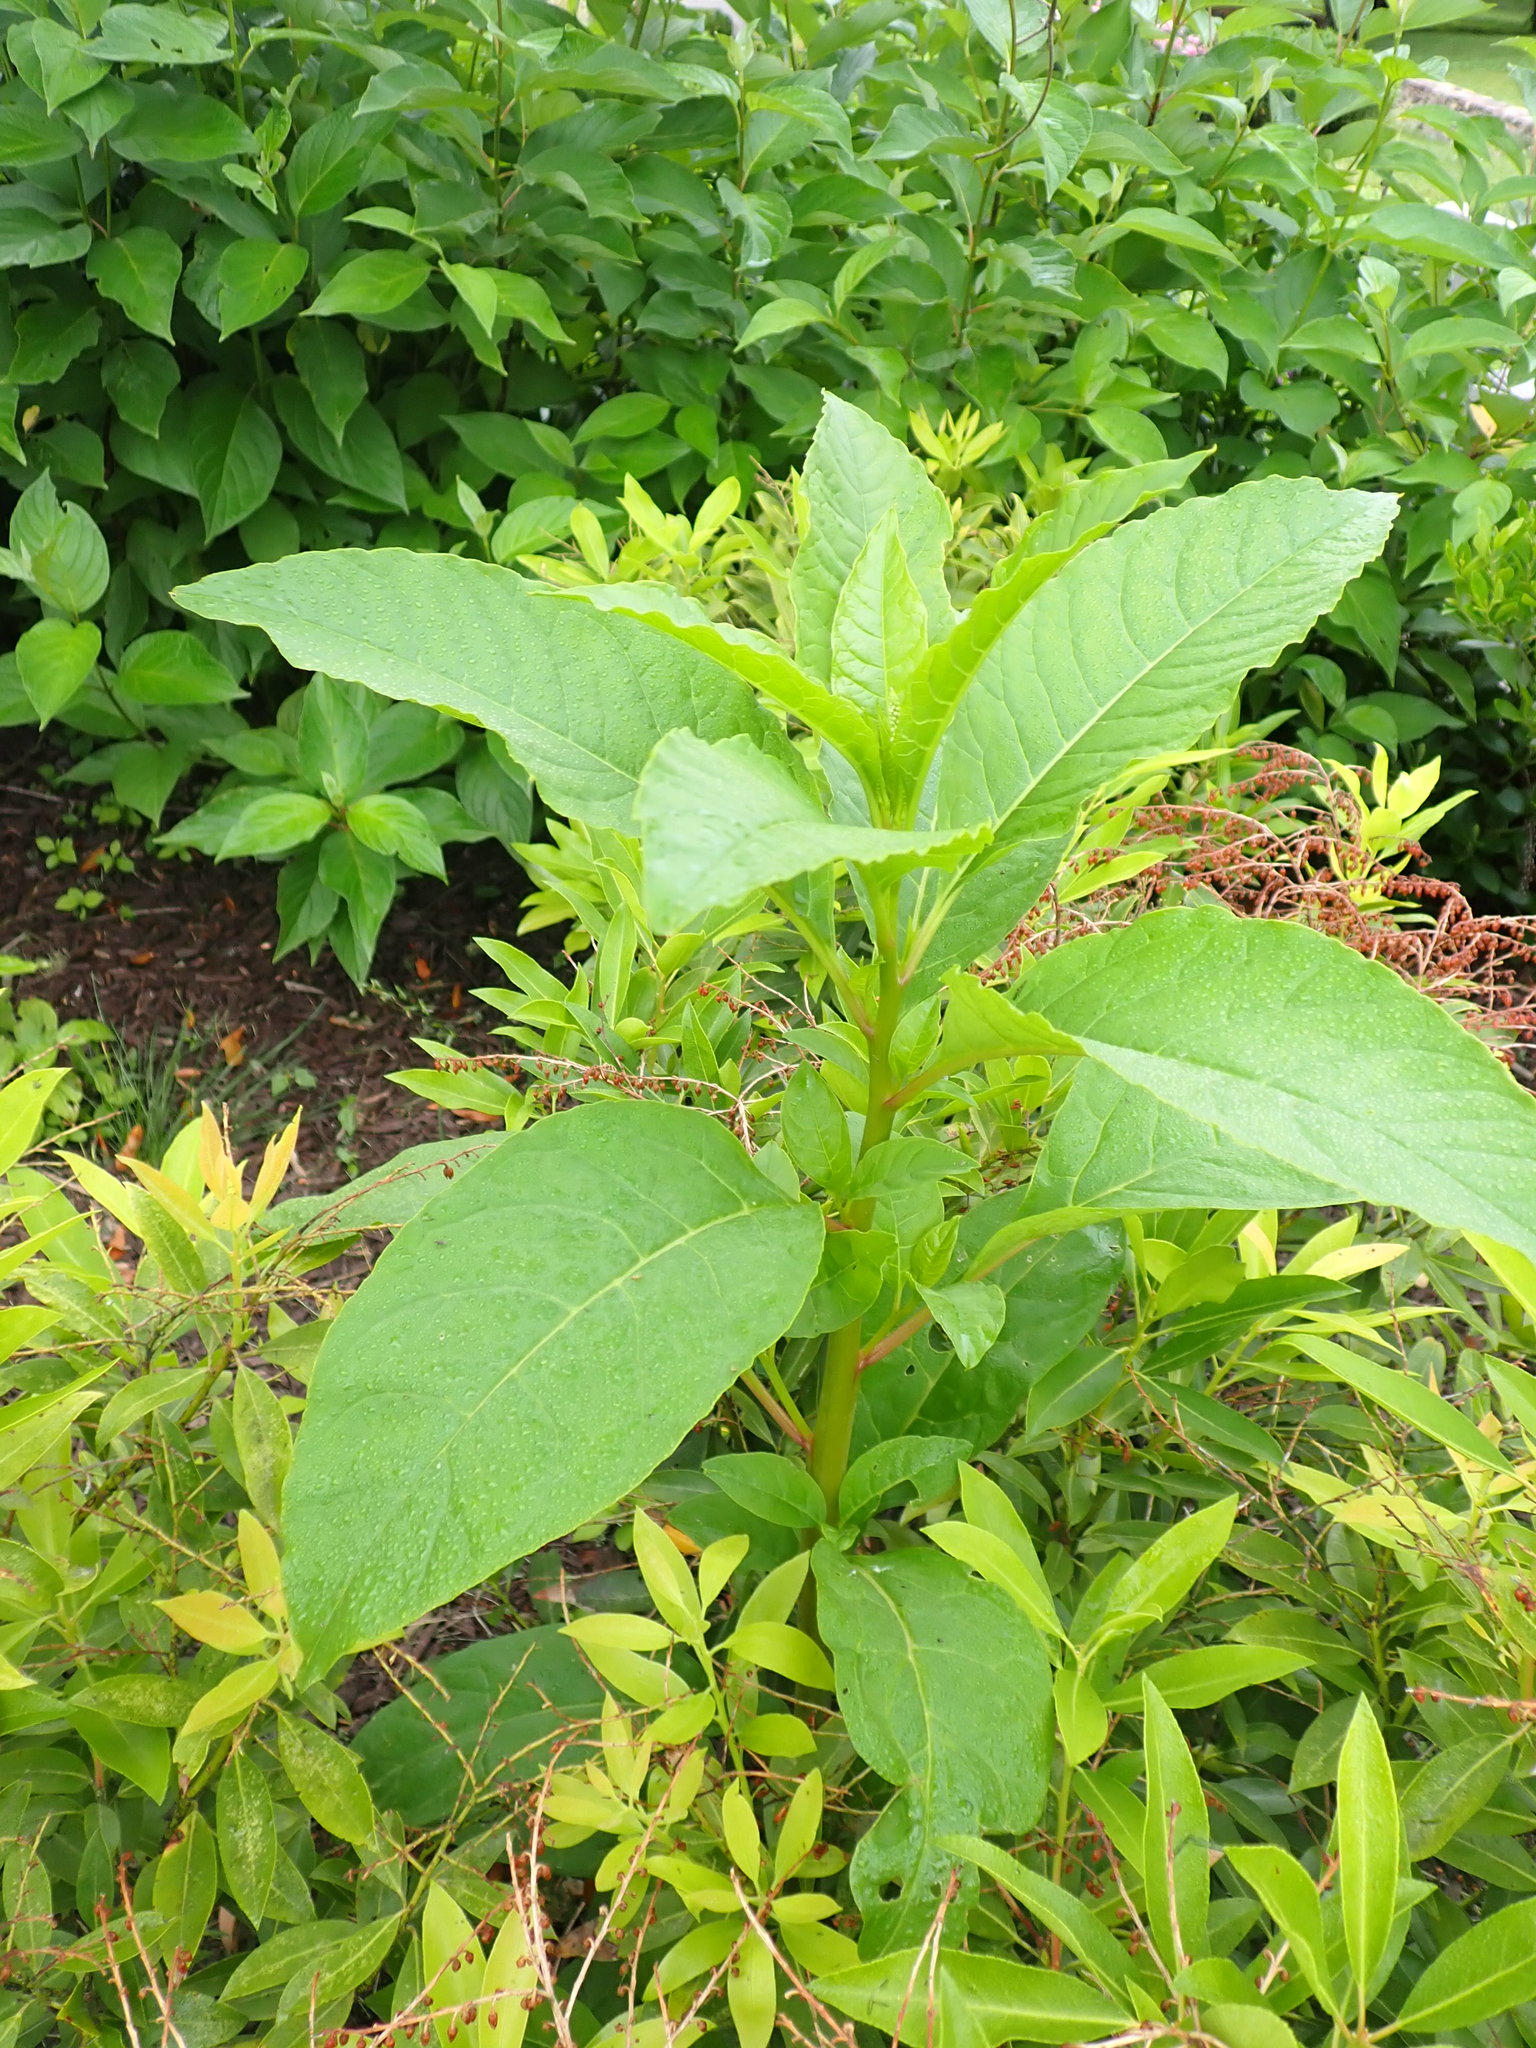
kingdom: Plantae
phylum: Tracheophyta
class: Magnoliopsida
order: Caryophyllales
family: Phytolaccaceae
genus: Phytolacca
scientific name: Phytolacca americana
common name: American pokeweed
